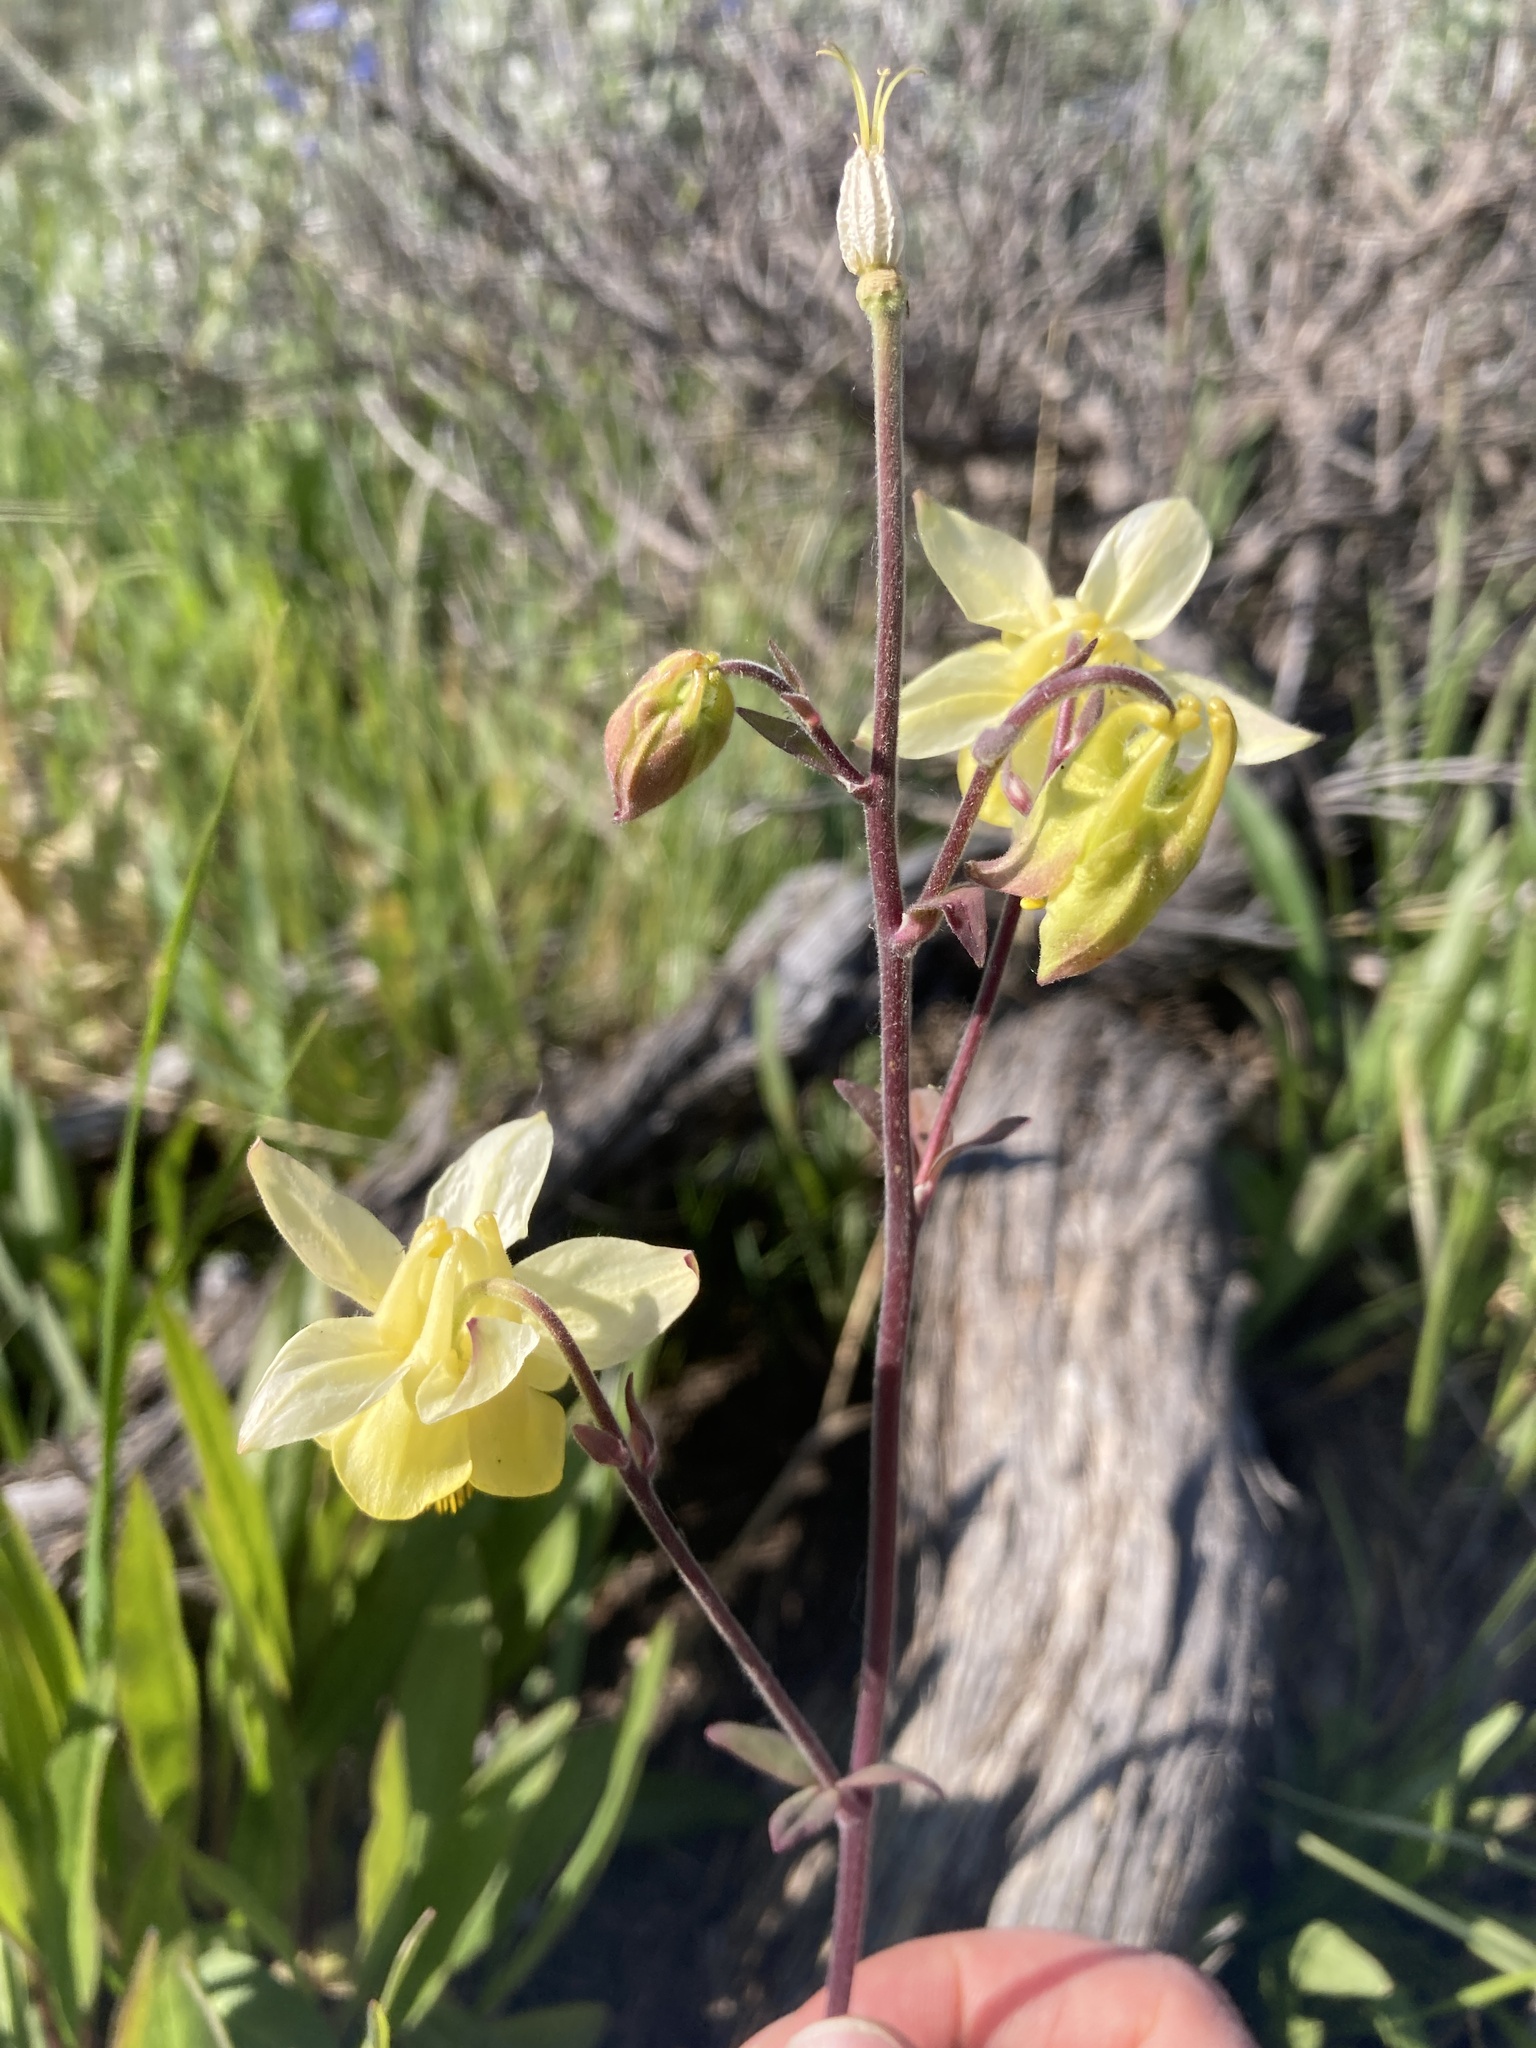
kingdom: Plantae
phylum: Tracheophyta
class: Magnoliopsida
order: Ranunculales
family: Ranunculaceae
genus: Aquilegia
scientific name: Aquilegia flavescens
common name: Yellow columbine
